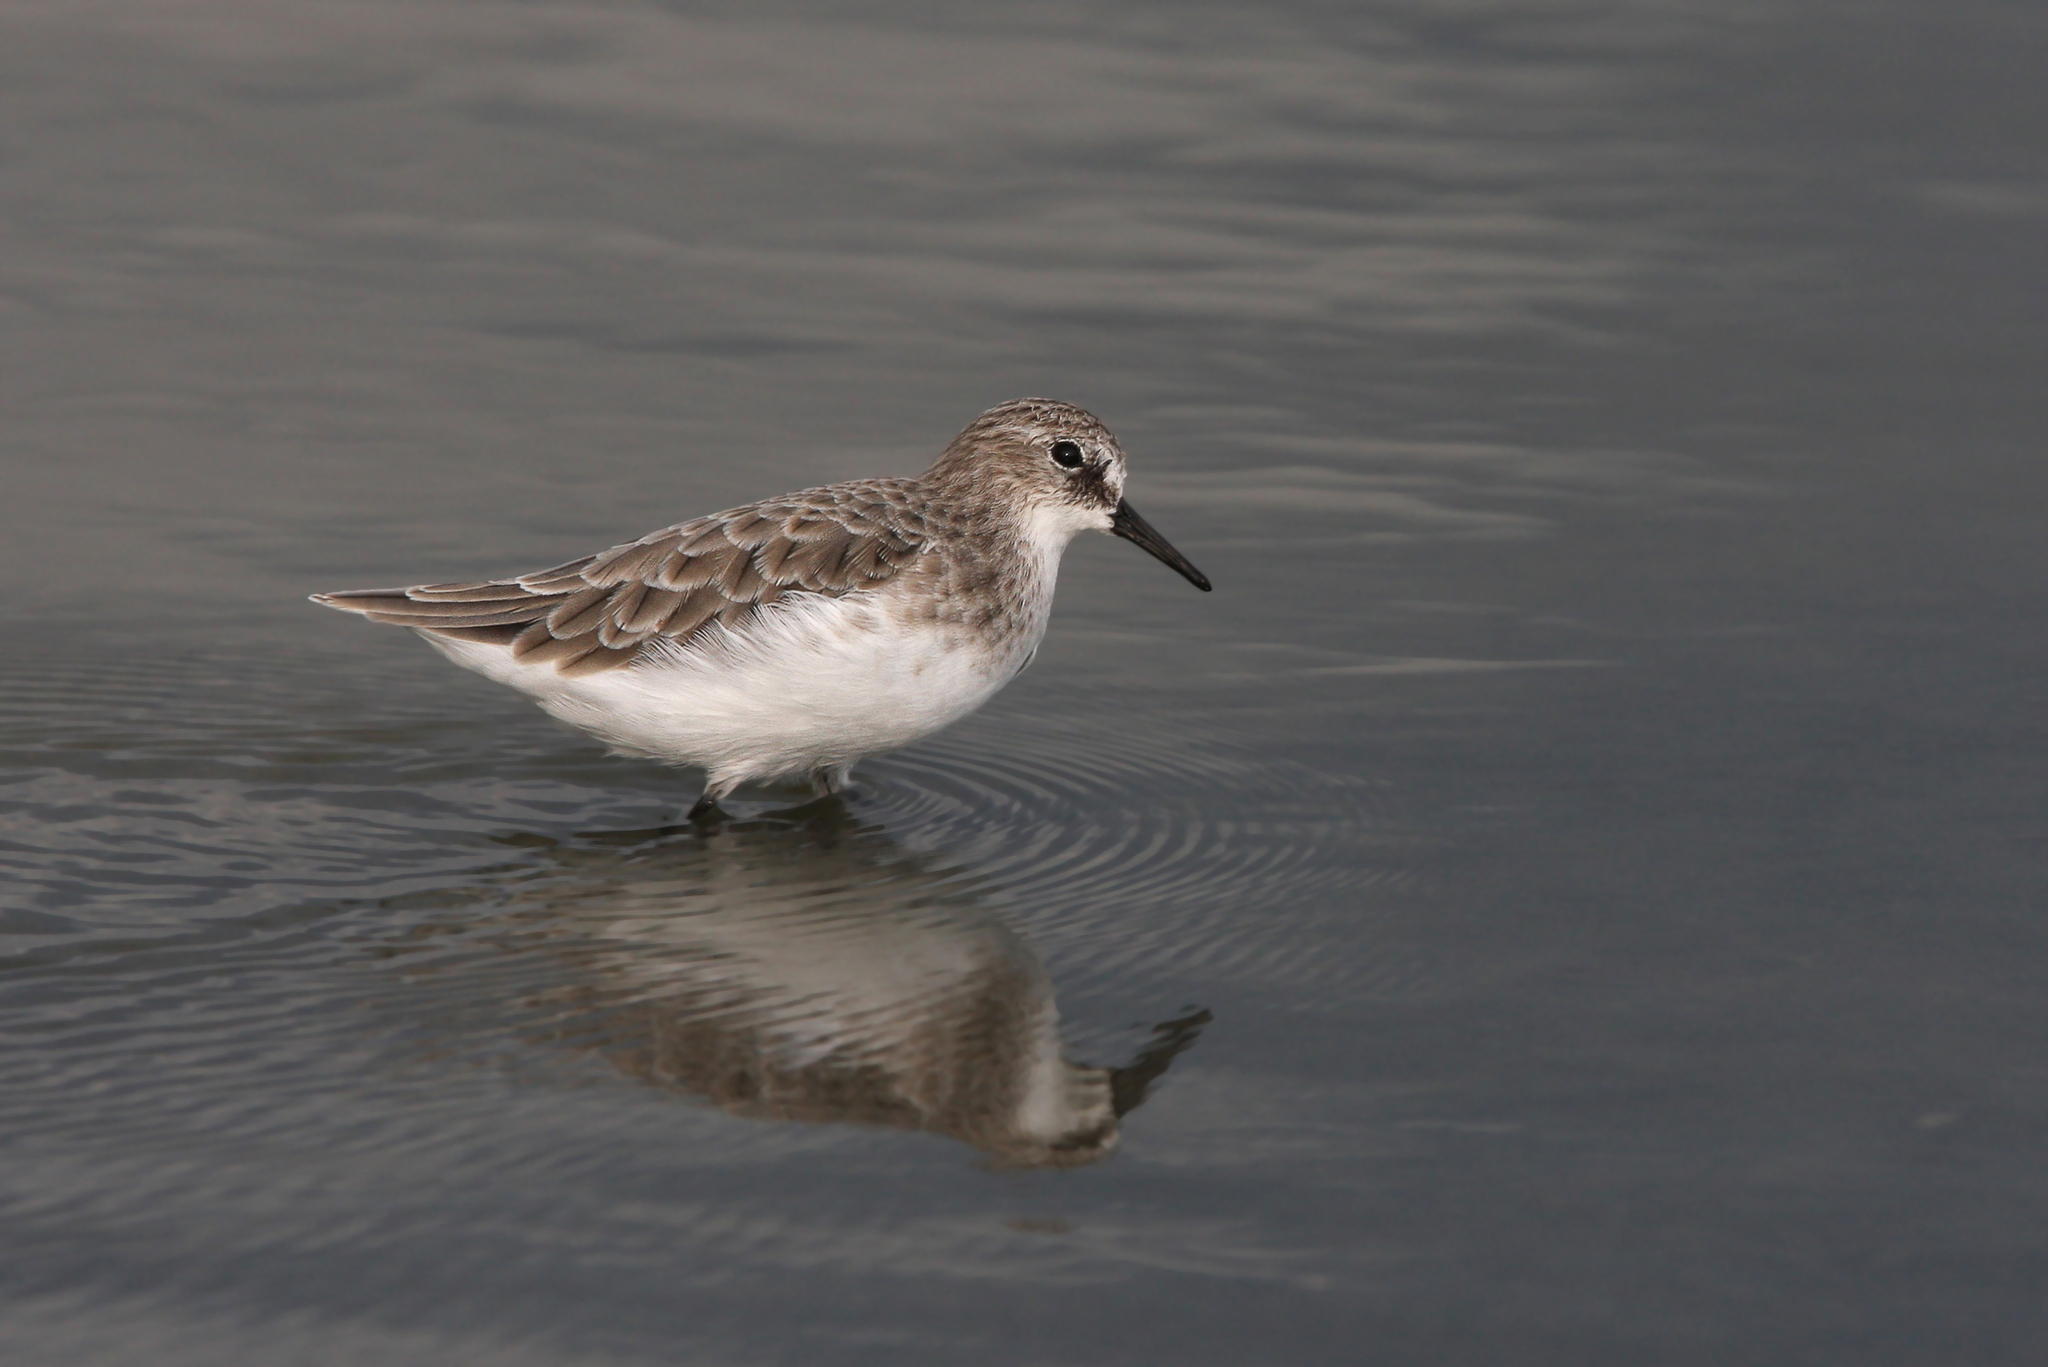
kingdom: Animalia
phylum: Chordata
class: Aves
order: Charadriiformes
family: Scolopacidae
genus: Calidris
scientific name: Calidris minuta
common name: Little stint
